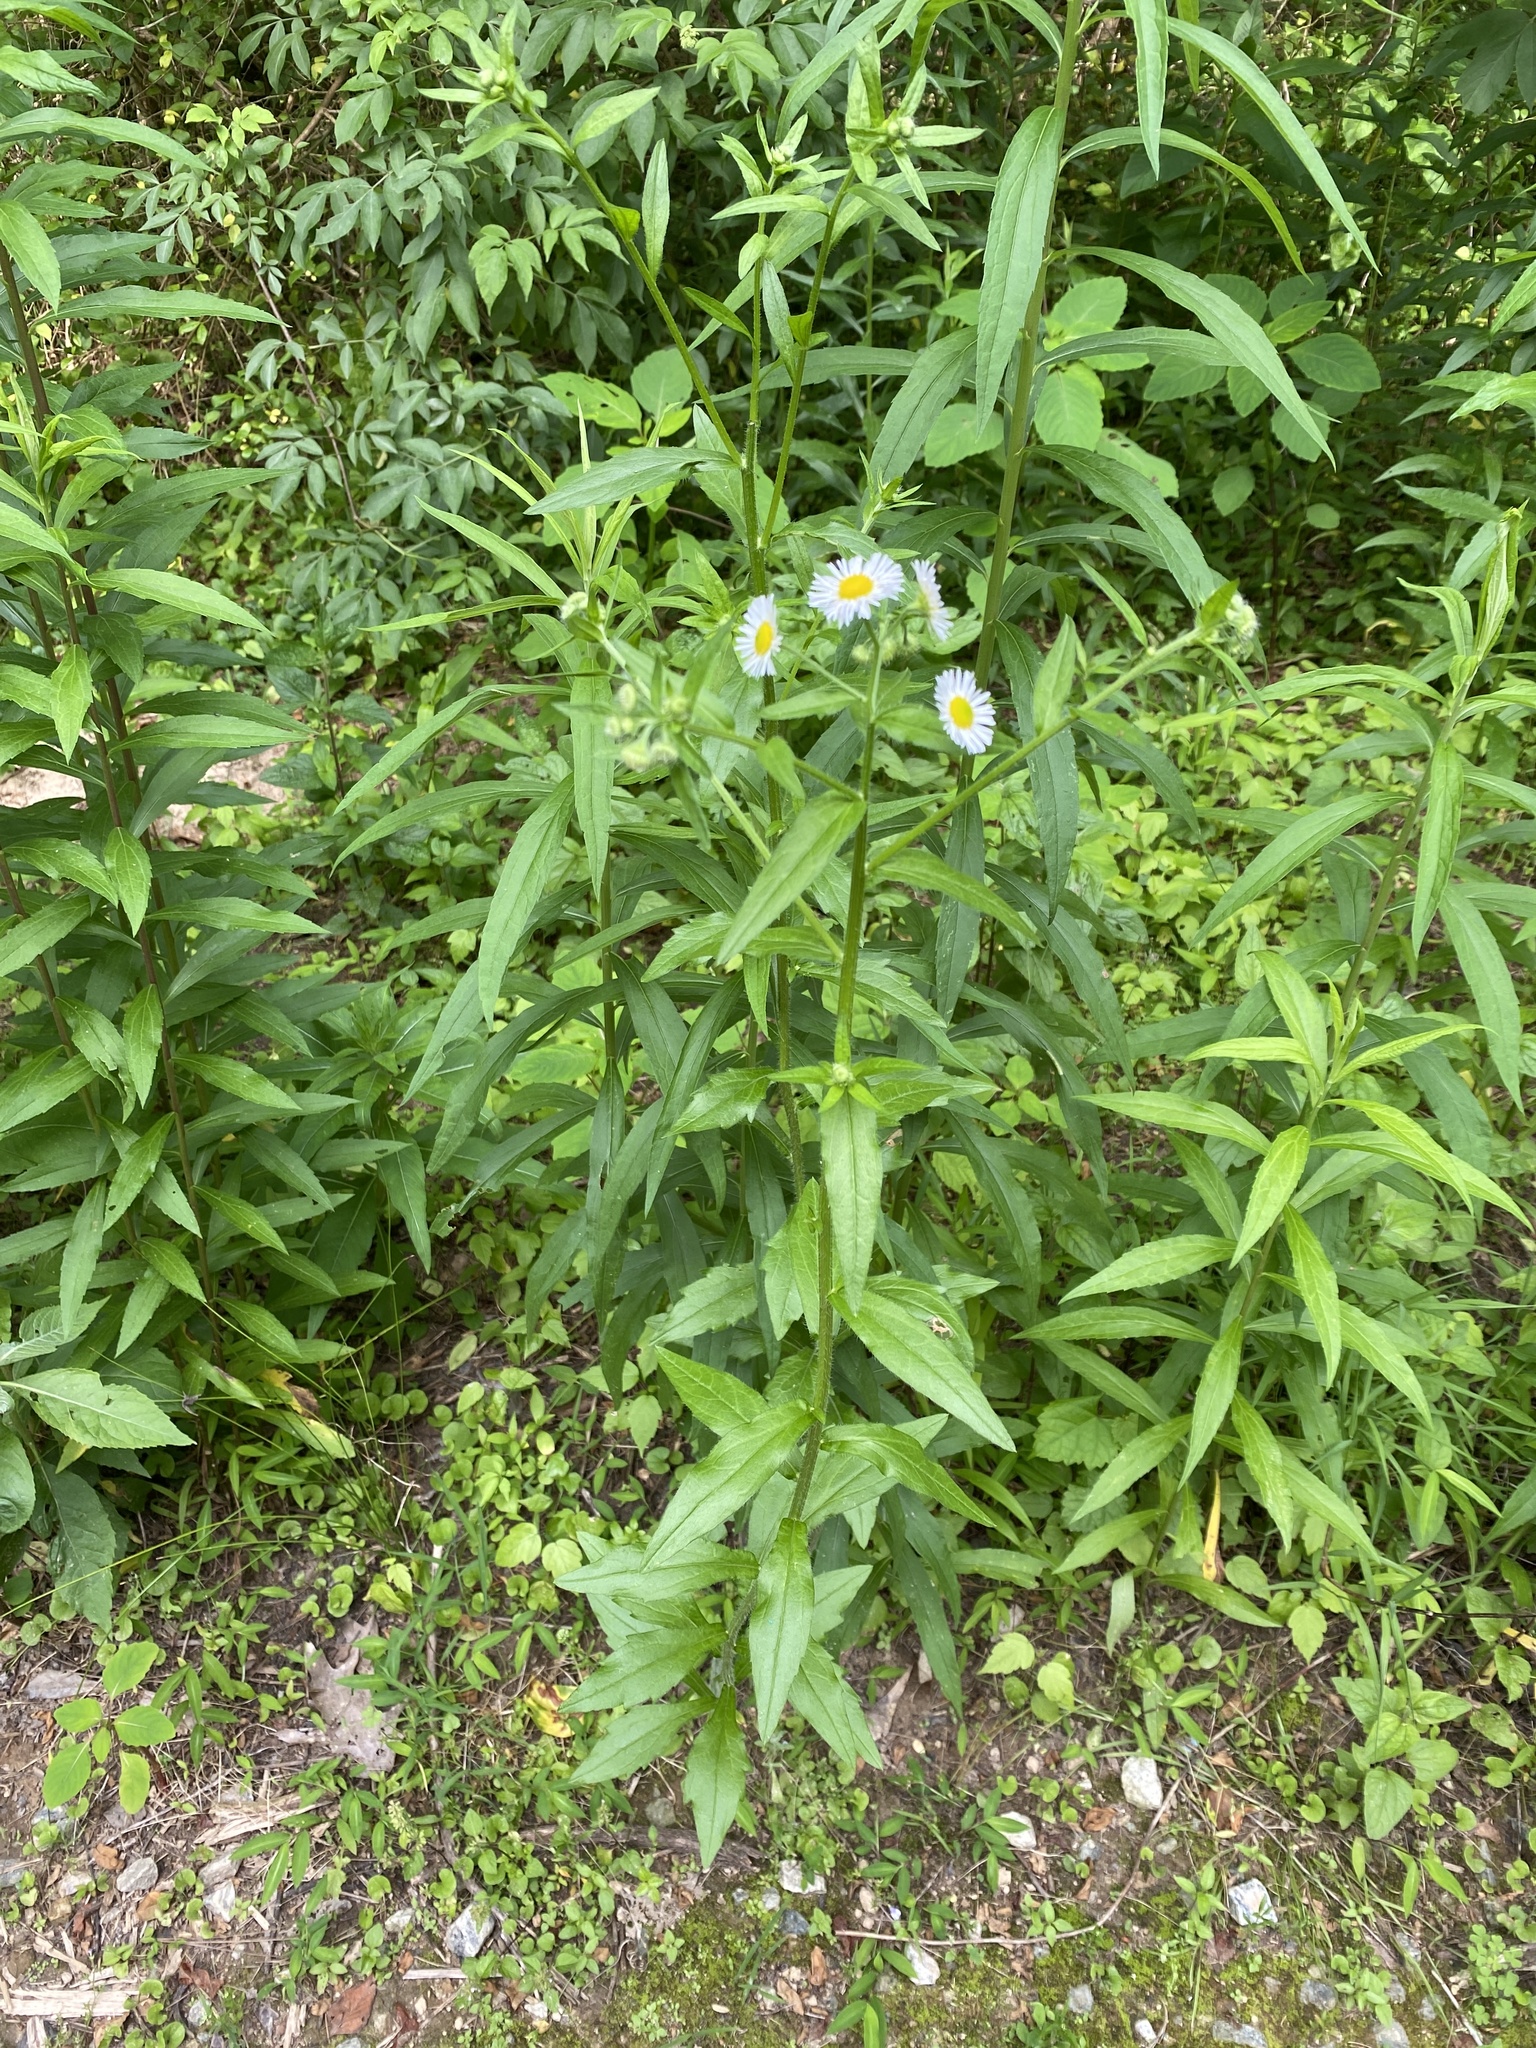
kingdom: Plantae
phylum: Tracheophyta
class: Magnoliopsida
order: Asterales
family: Asteraceae
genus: Erigeron
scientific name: Erigeron annuus
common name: Tall fleabane
